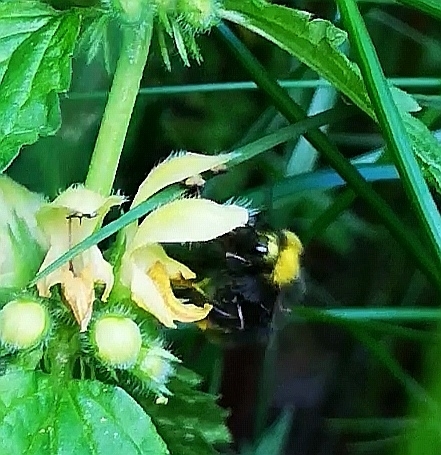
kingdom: Animalia
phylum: Arthropoda
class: Insecta
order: Hymenoptera
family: Apidae
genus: Bombus
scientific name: Bombus pratorum
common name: Early humble-bee
